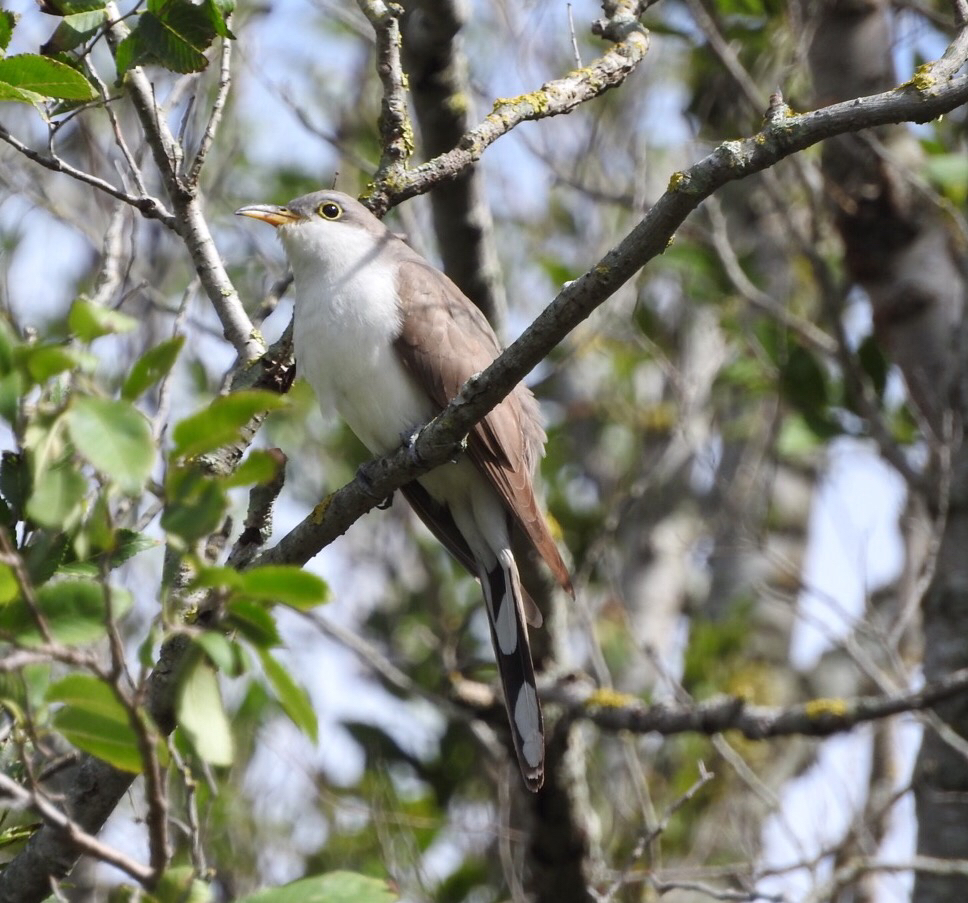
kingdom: Animalia
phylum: Chordata
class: Aves
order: Cuculiformes
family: Cuculidae
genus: Coccyzus
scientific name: Coccyzus americanus
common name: Yellow-billed cuckoo
